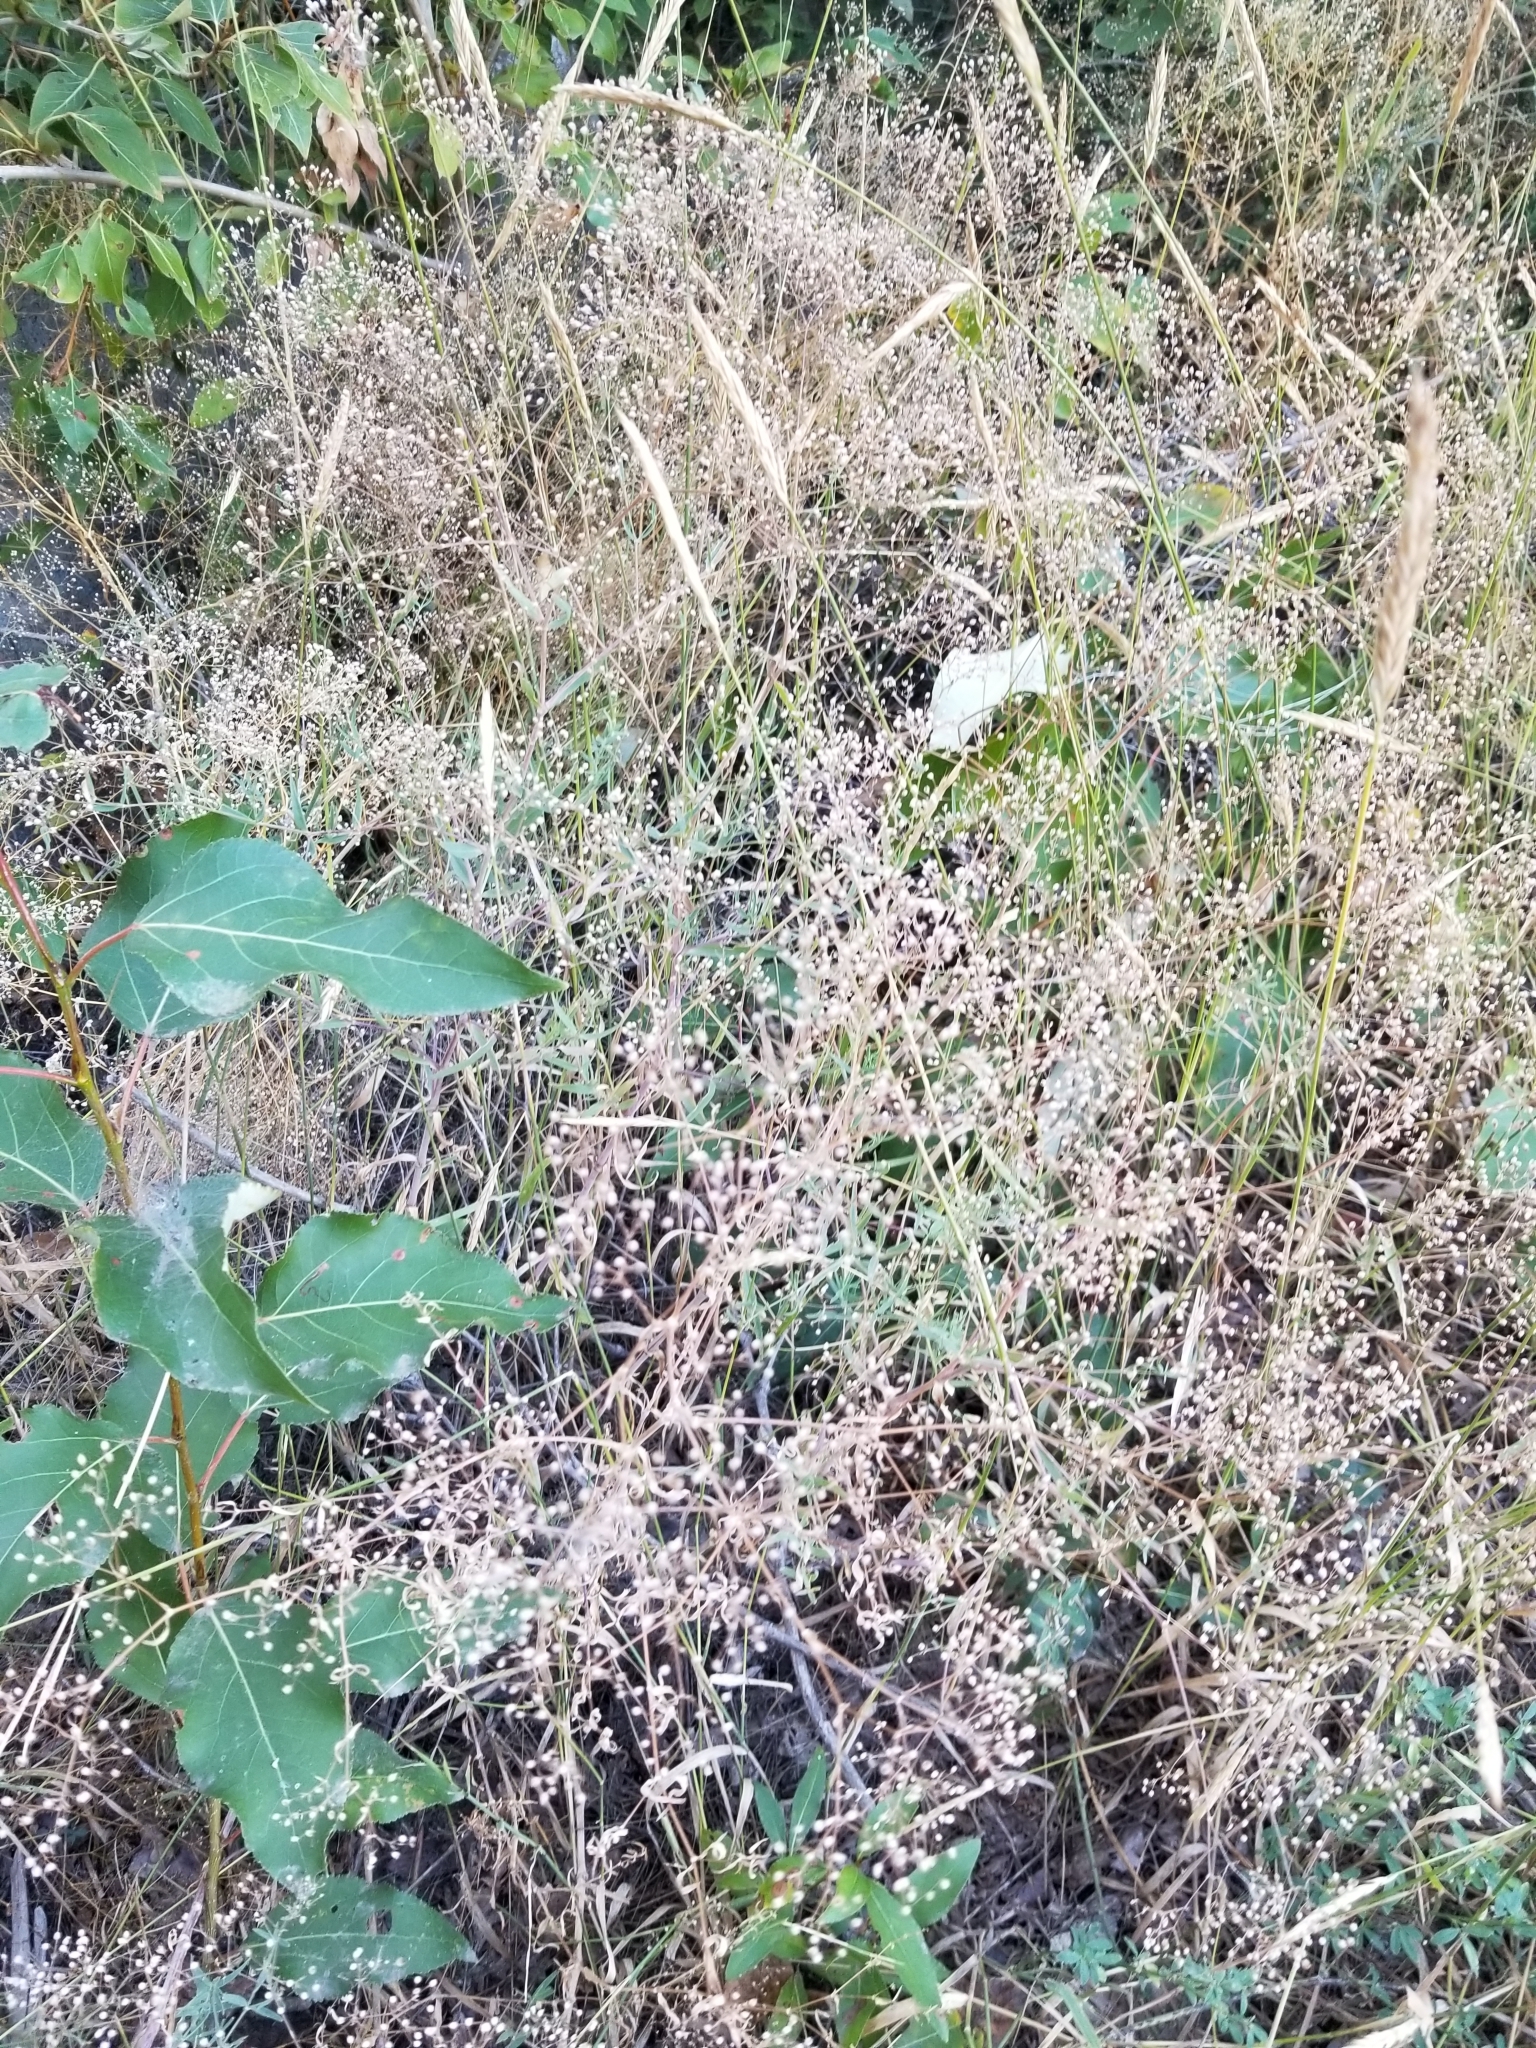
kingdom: Plantae
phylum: Tracheophyta
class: Magnoliopsida
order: Caryophyllales
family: Caryophyllaceae
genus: Gypsophila
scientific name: Gypsophila paniculata
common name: Baby's-breath
